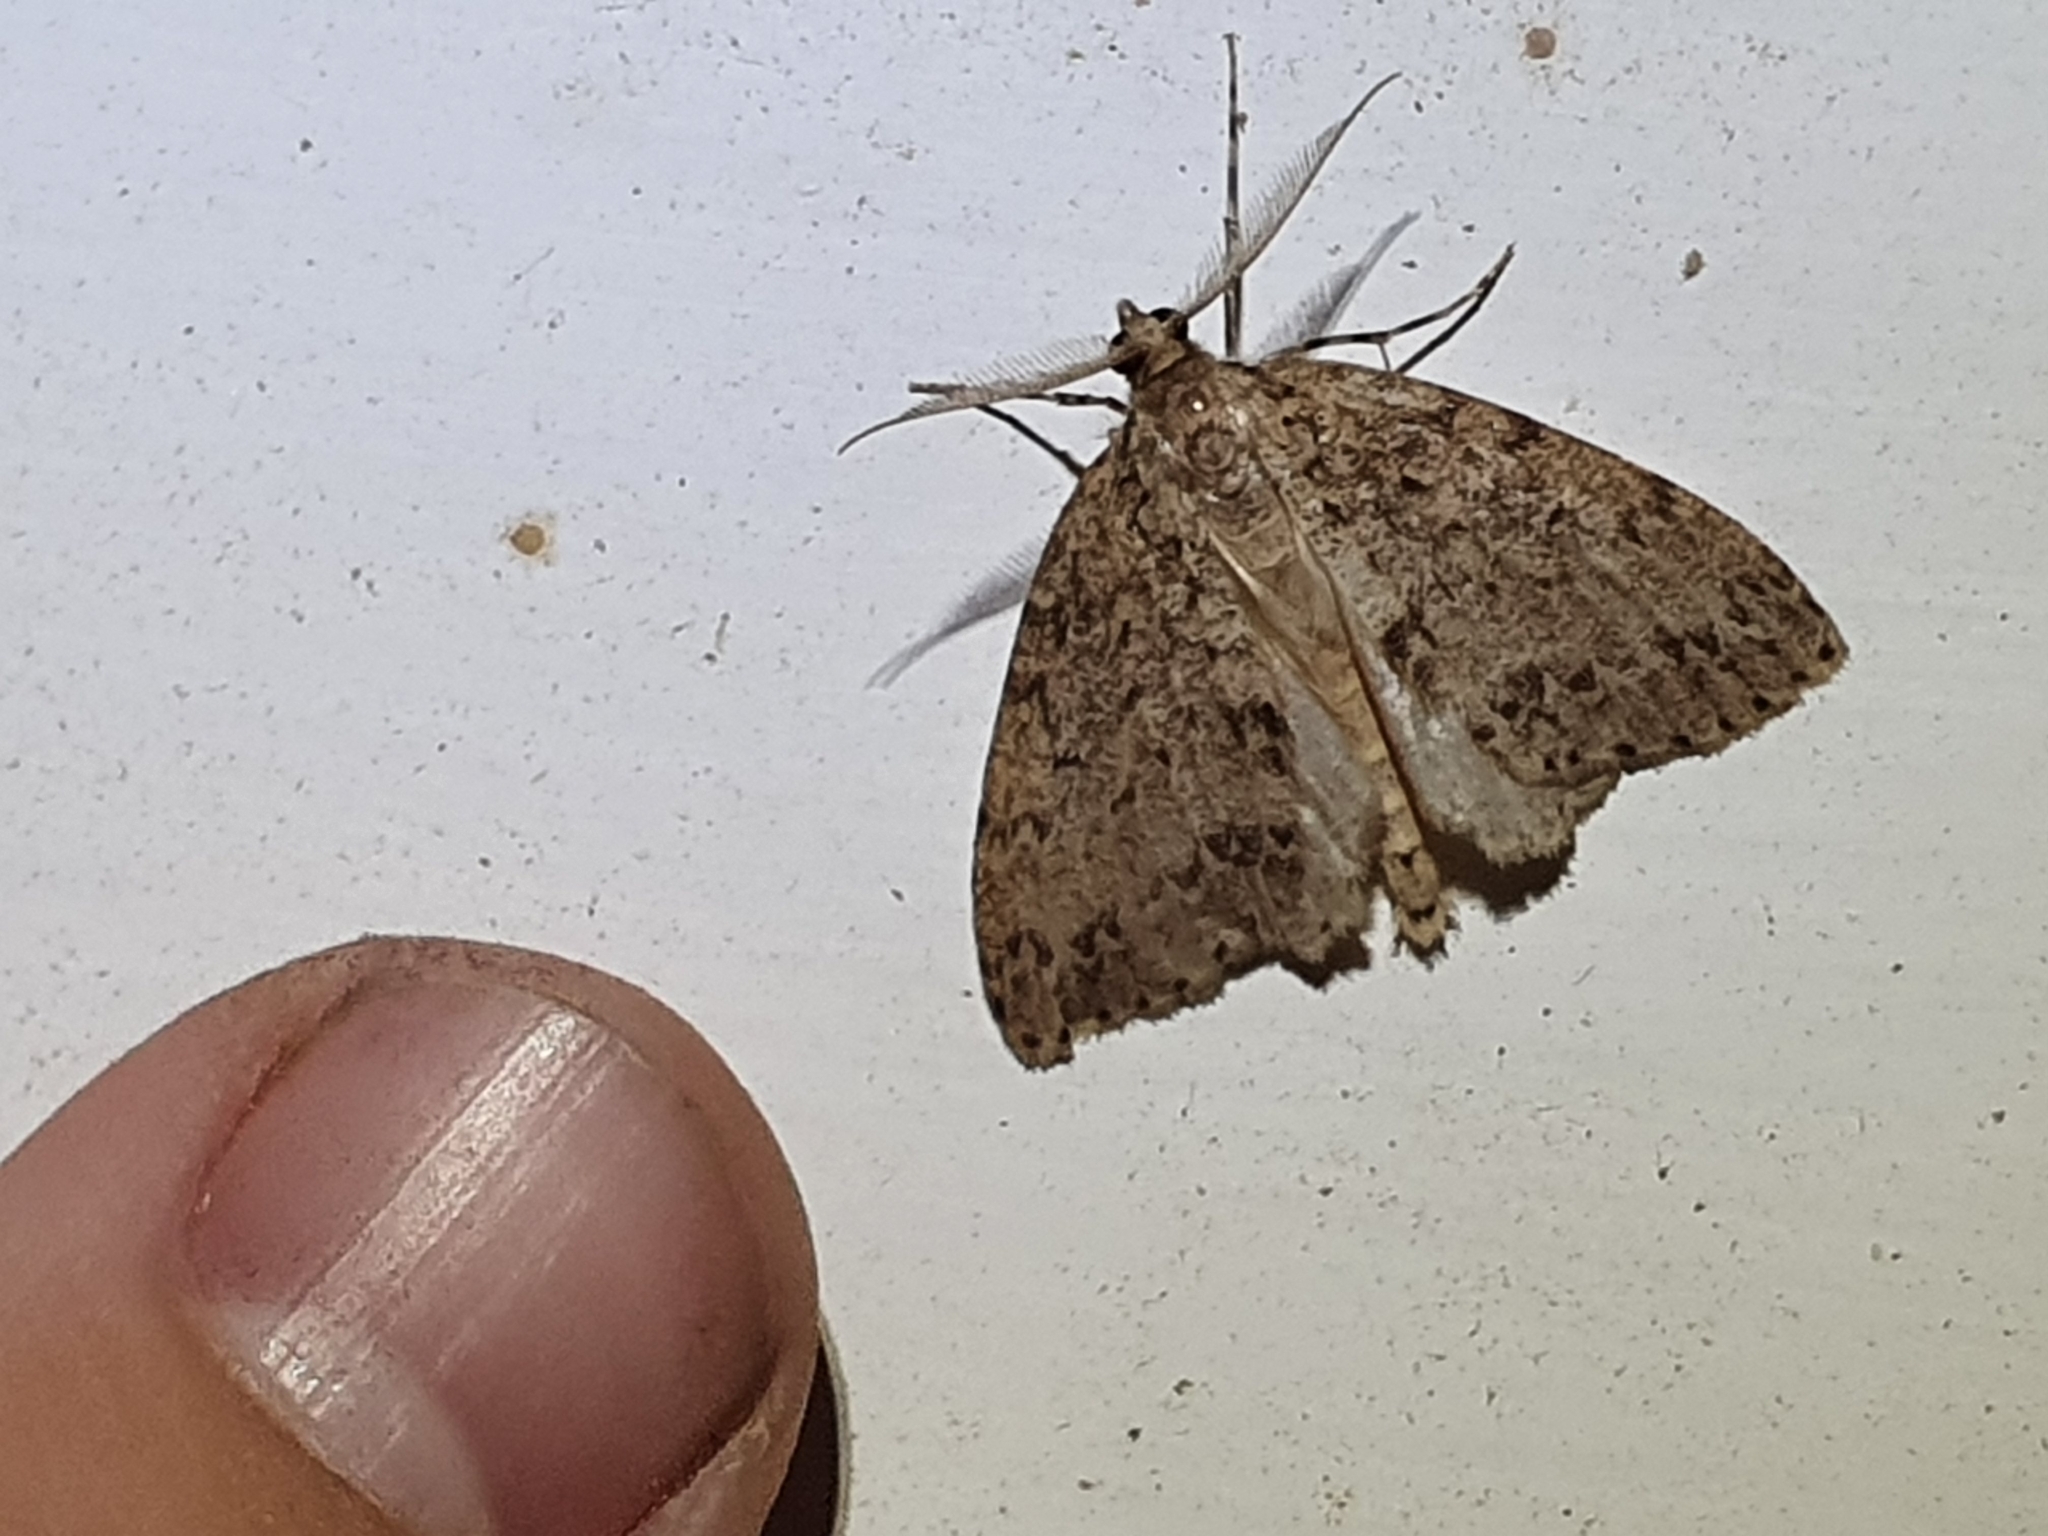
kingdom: Animalia
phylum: Arthropoda
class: Insecta
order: Lepidoptera
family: Geometridae
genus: Pseudocoremia
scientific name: Pseudocoremia fenerata
